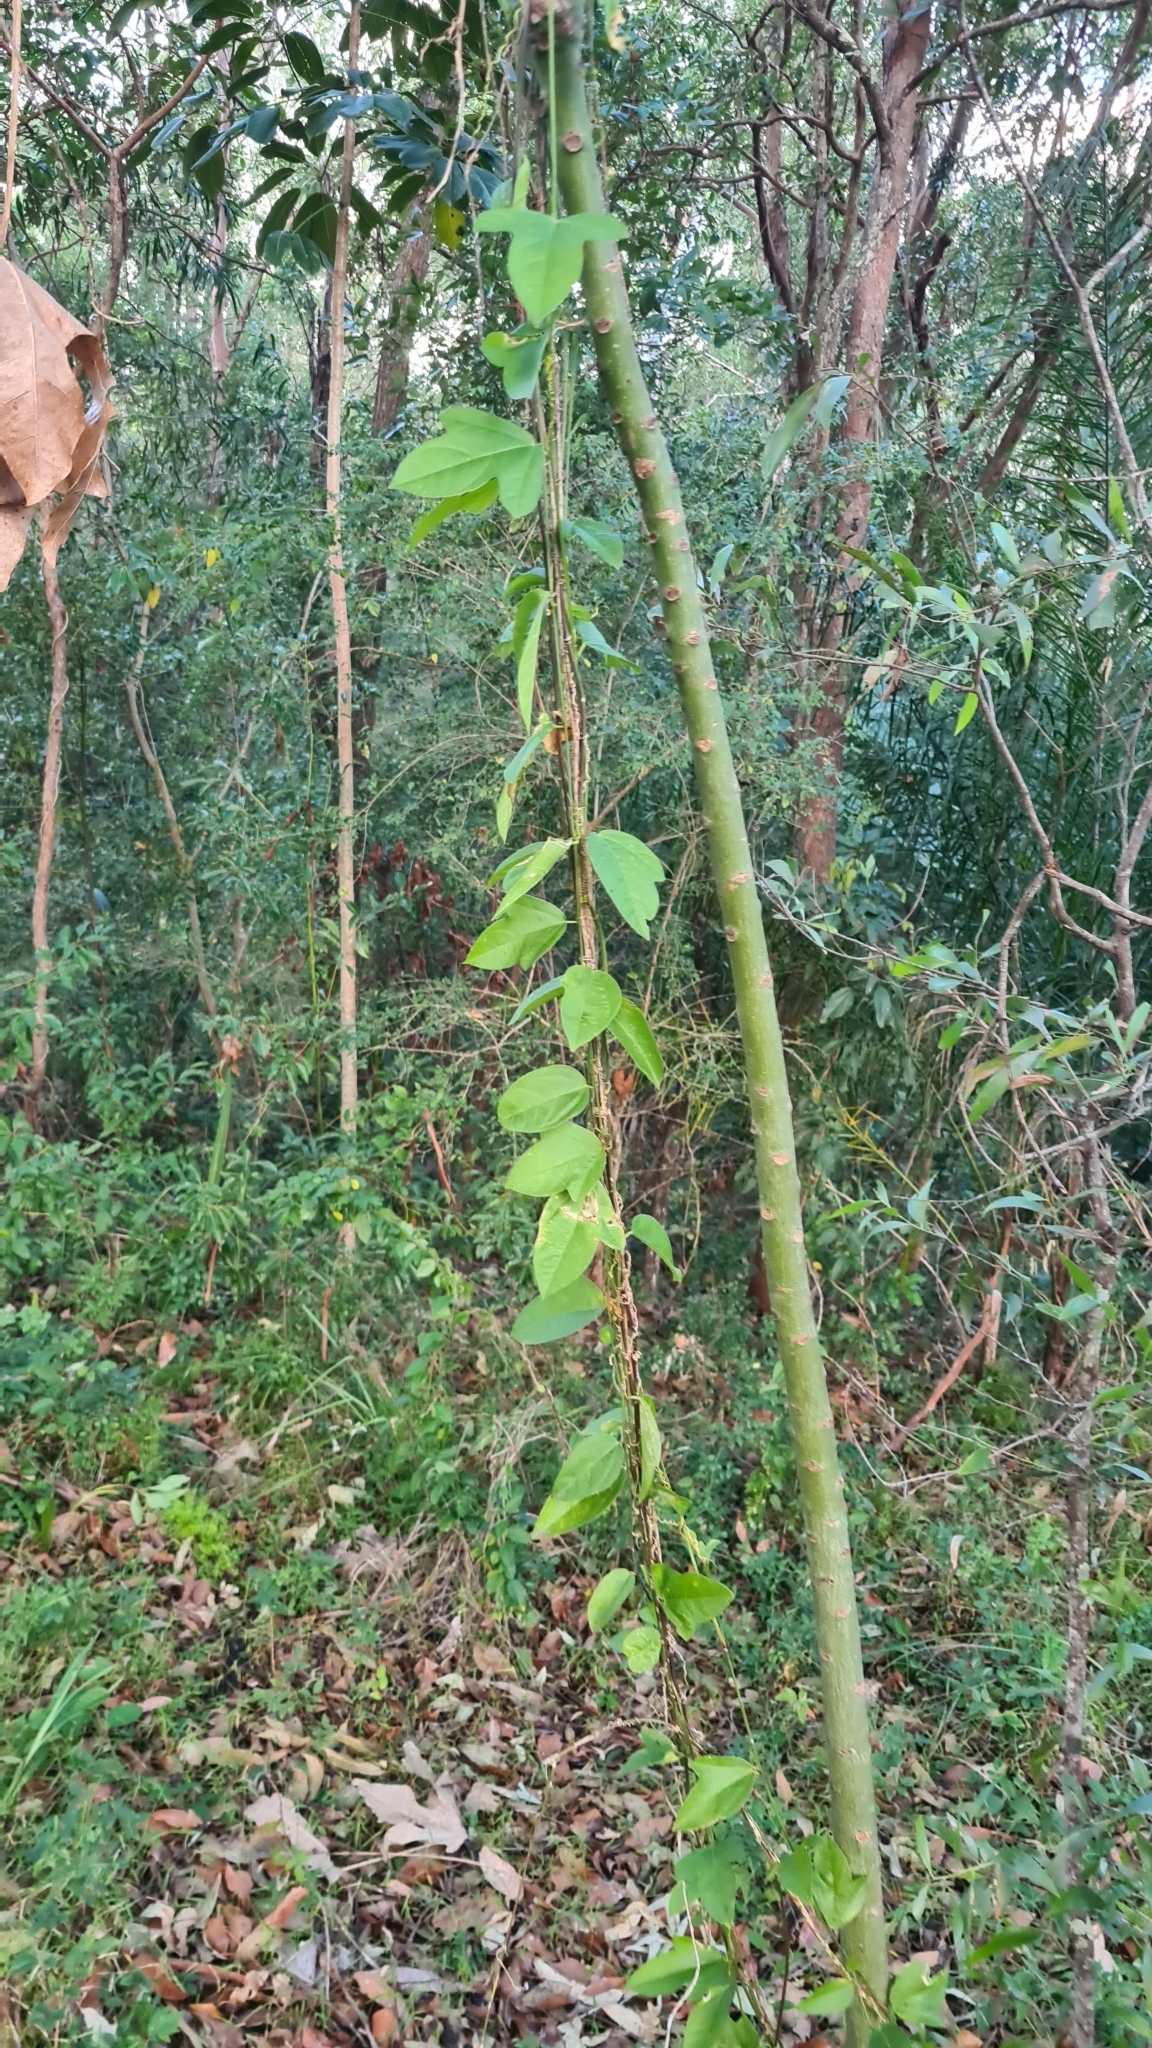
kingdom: Plantae
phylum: Tracheophyta
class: Magnoliopsida
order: Malpighiales
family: Passifloraceae
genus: Passiflora
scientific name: Passiflora pallida
